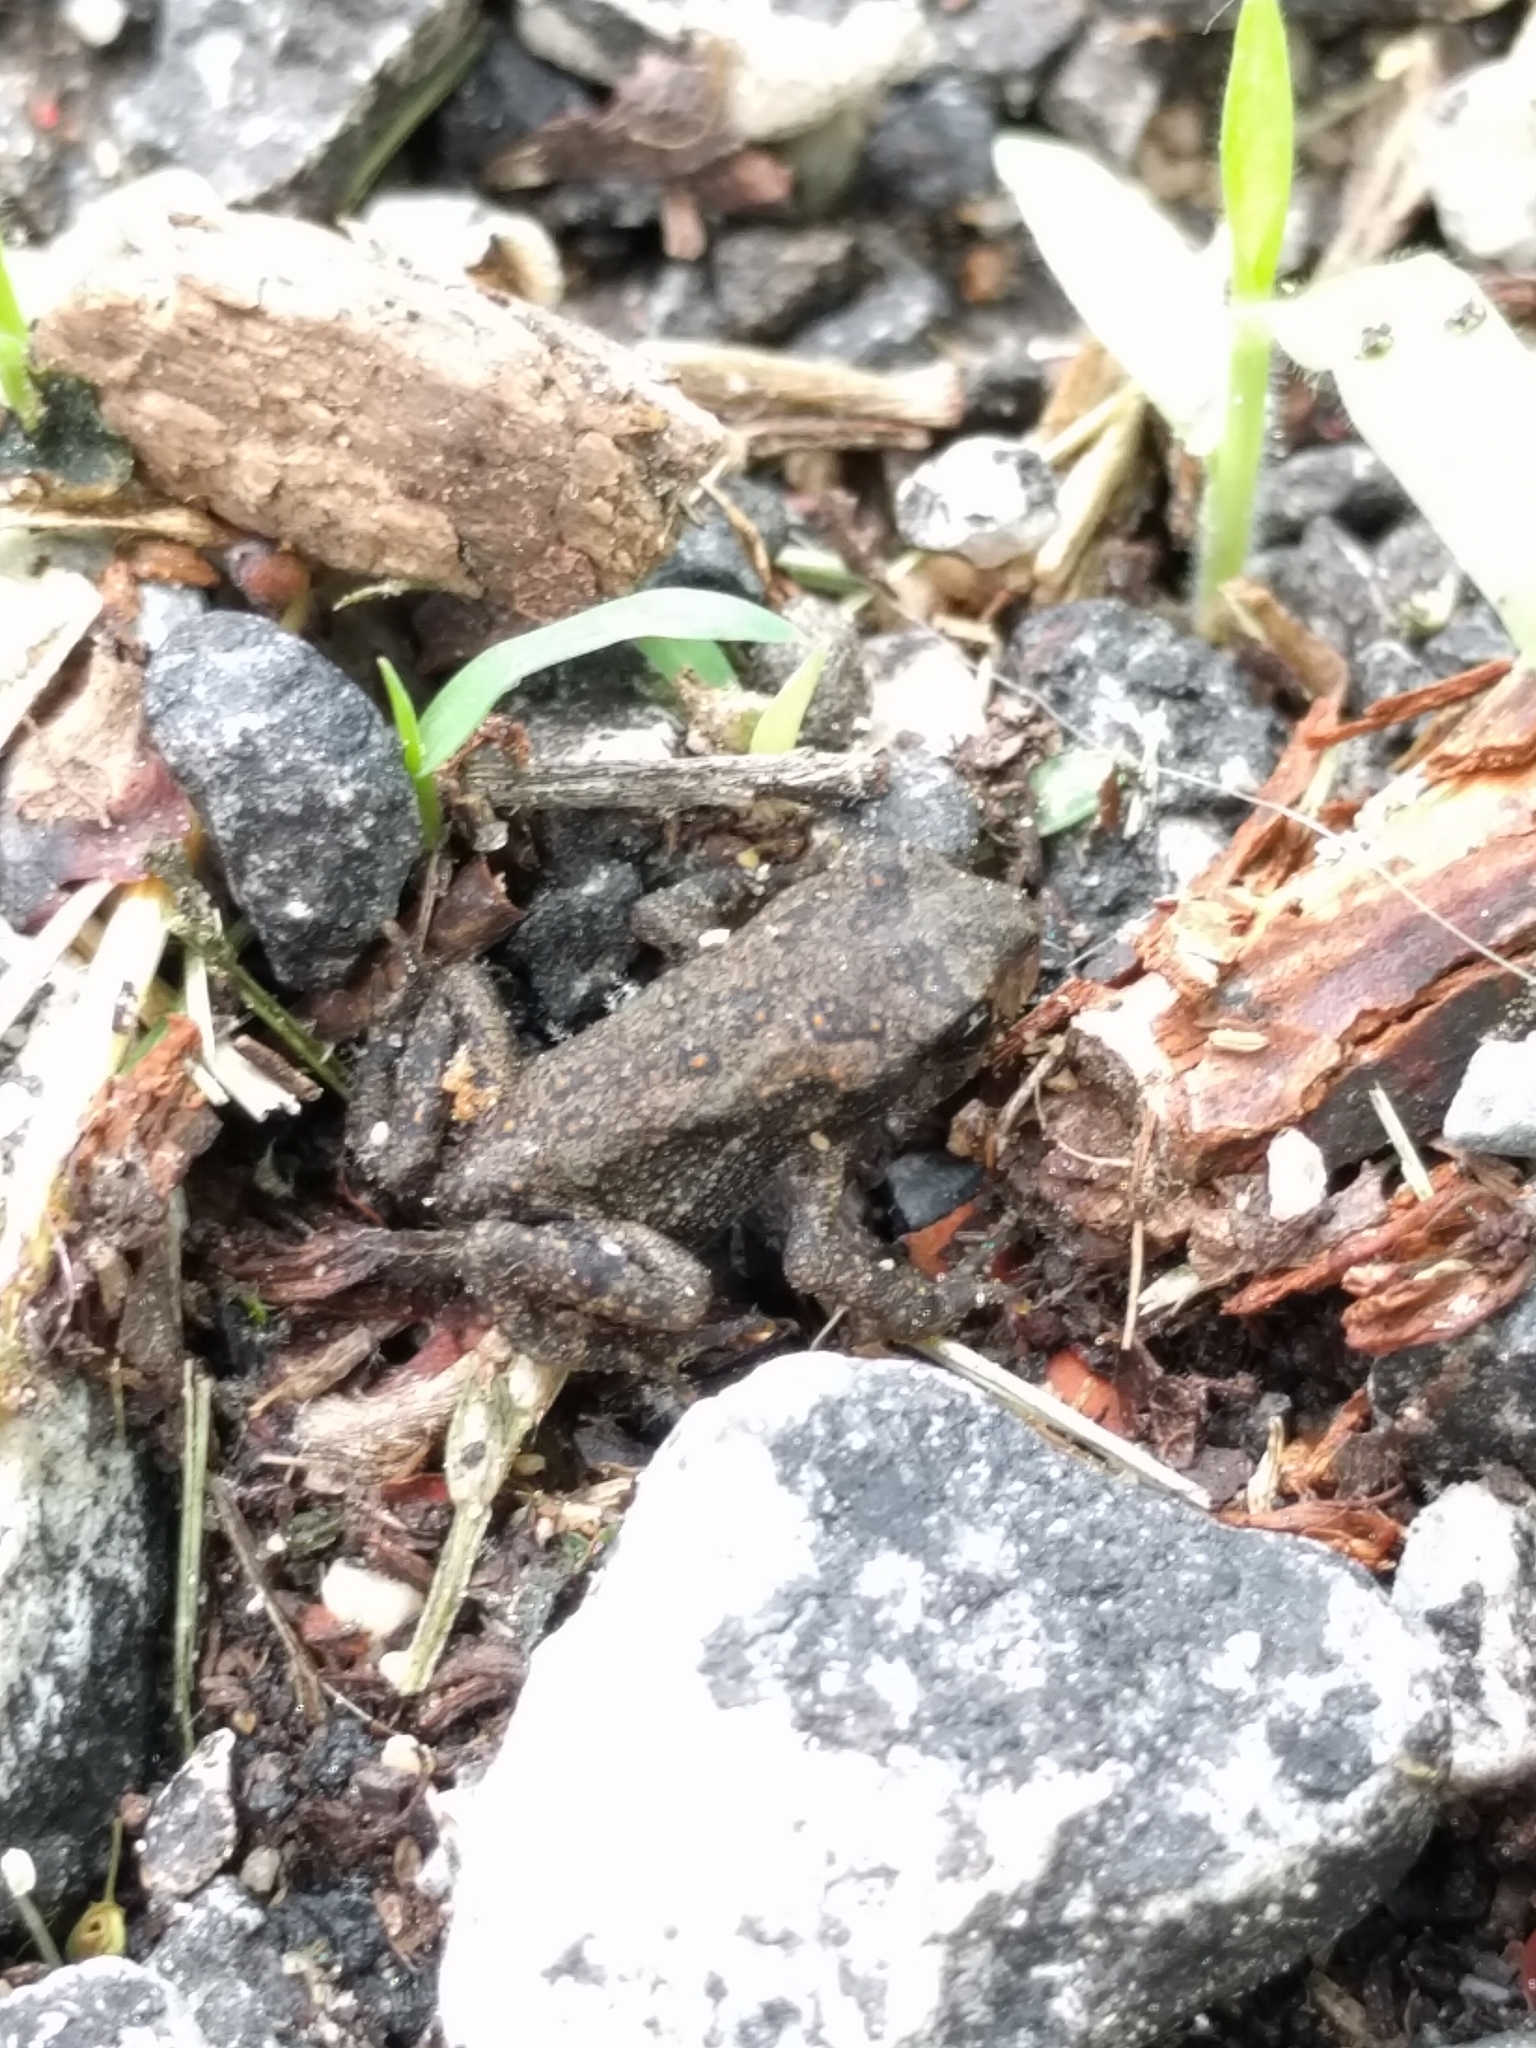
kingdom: Animalia
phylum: Chordata
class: Amphibia
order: Anura
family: Bufonidae
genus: Anaxyrus
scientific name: Anaxyrus americanus
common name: American toad
